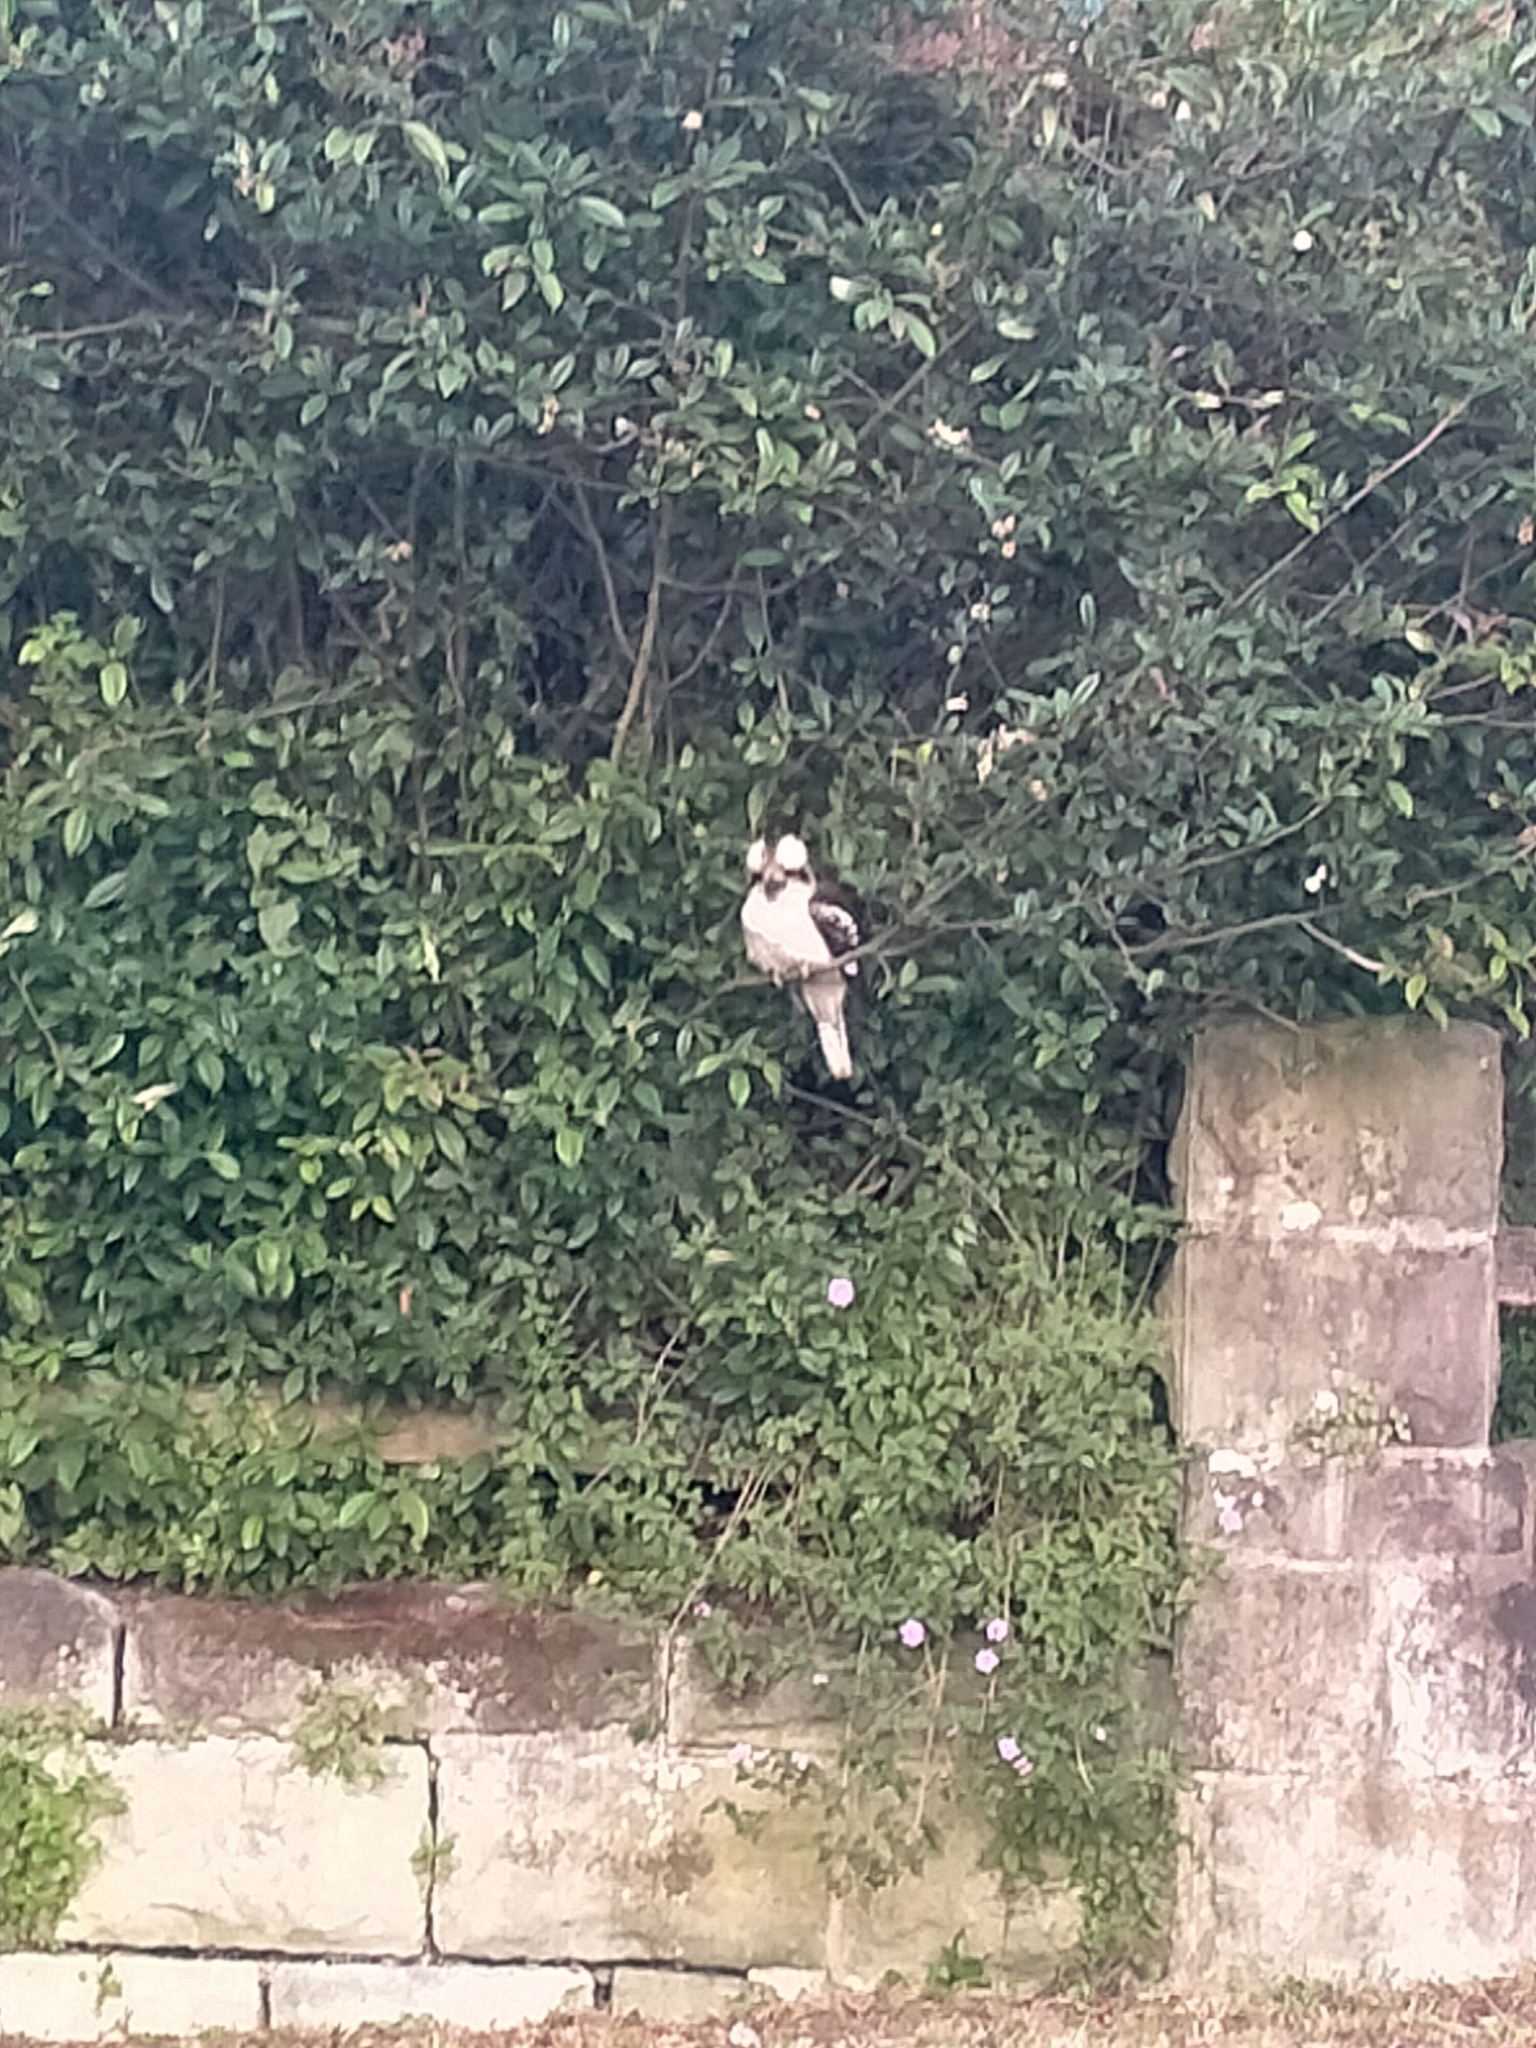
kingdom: Animalia
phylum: Chordata
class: Aves
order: Coraciiformes
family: Alcedinidae
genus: Dacelo
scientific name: Dacelo novaeguineae
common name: Laughing kookaburra
